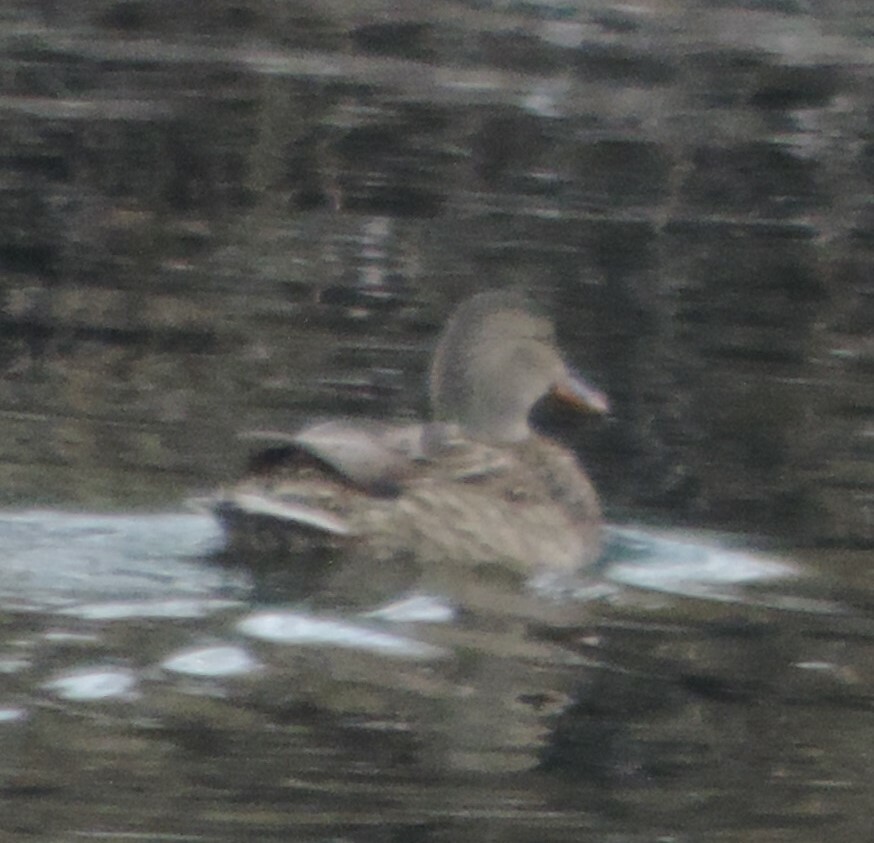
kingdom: Animalia
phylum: Chordata
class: Aves
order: Anseriformes
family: Anatidae
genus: Anas
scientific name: Anas platyrhynchos
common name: Mallard
